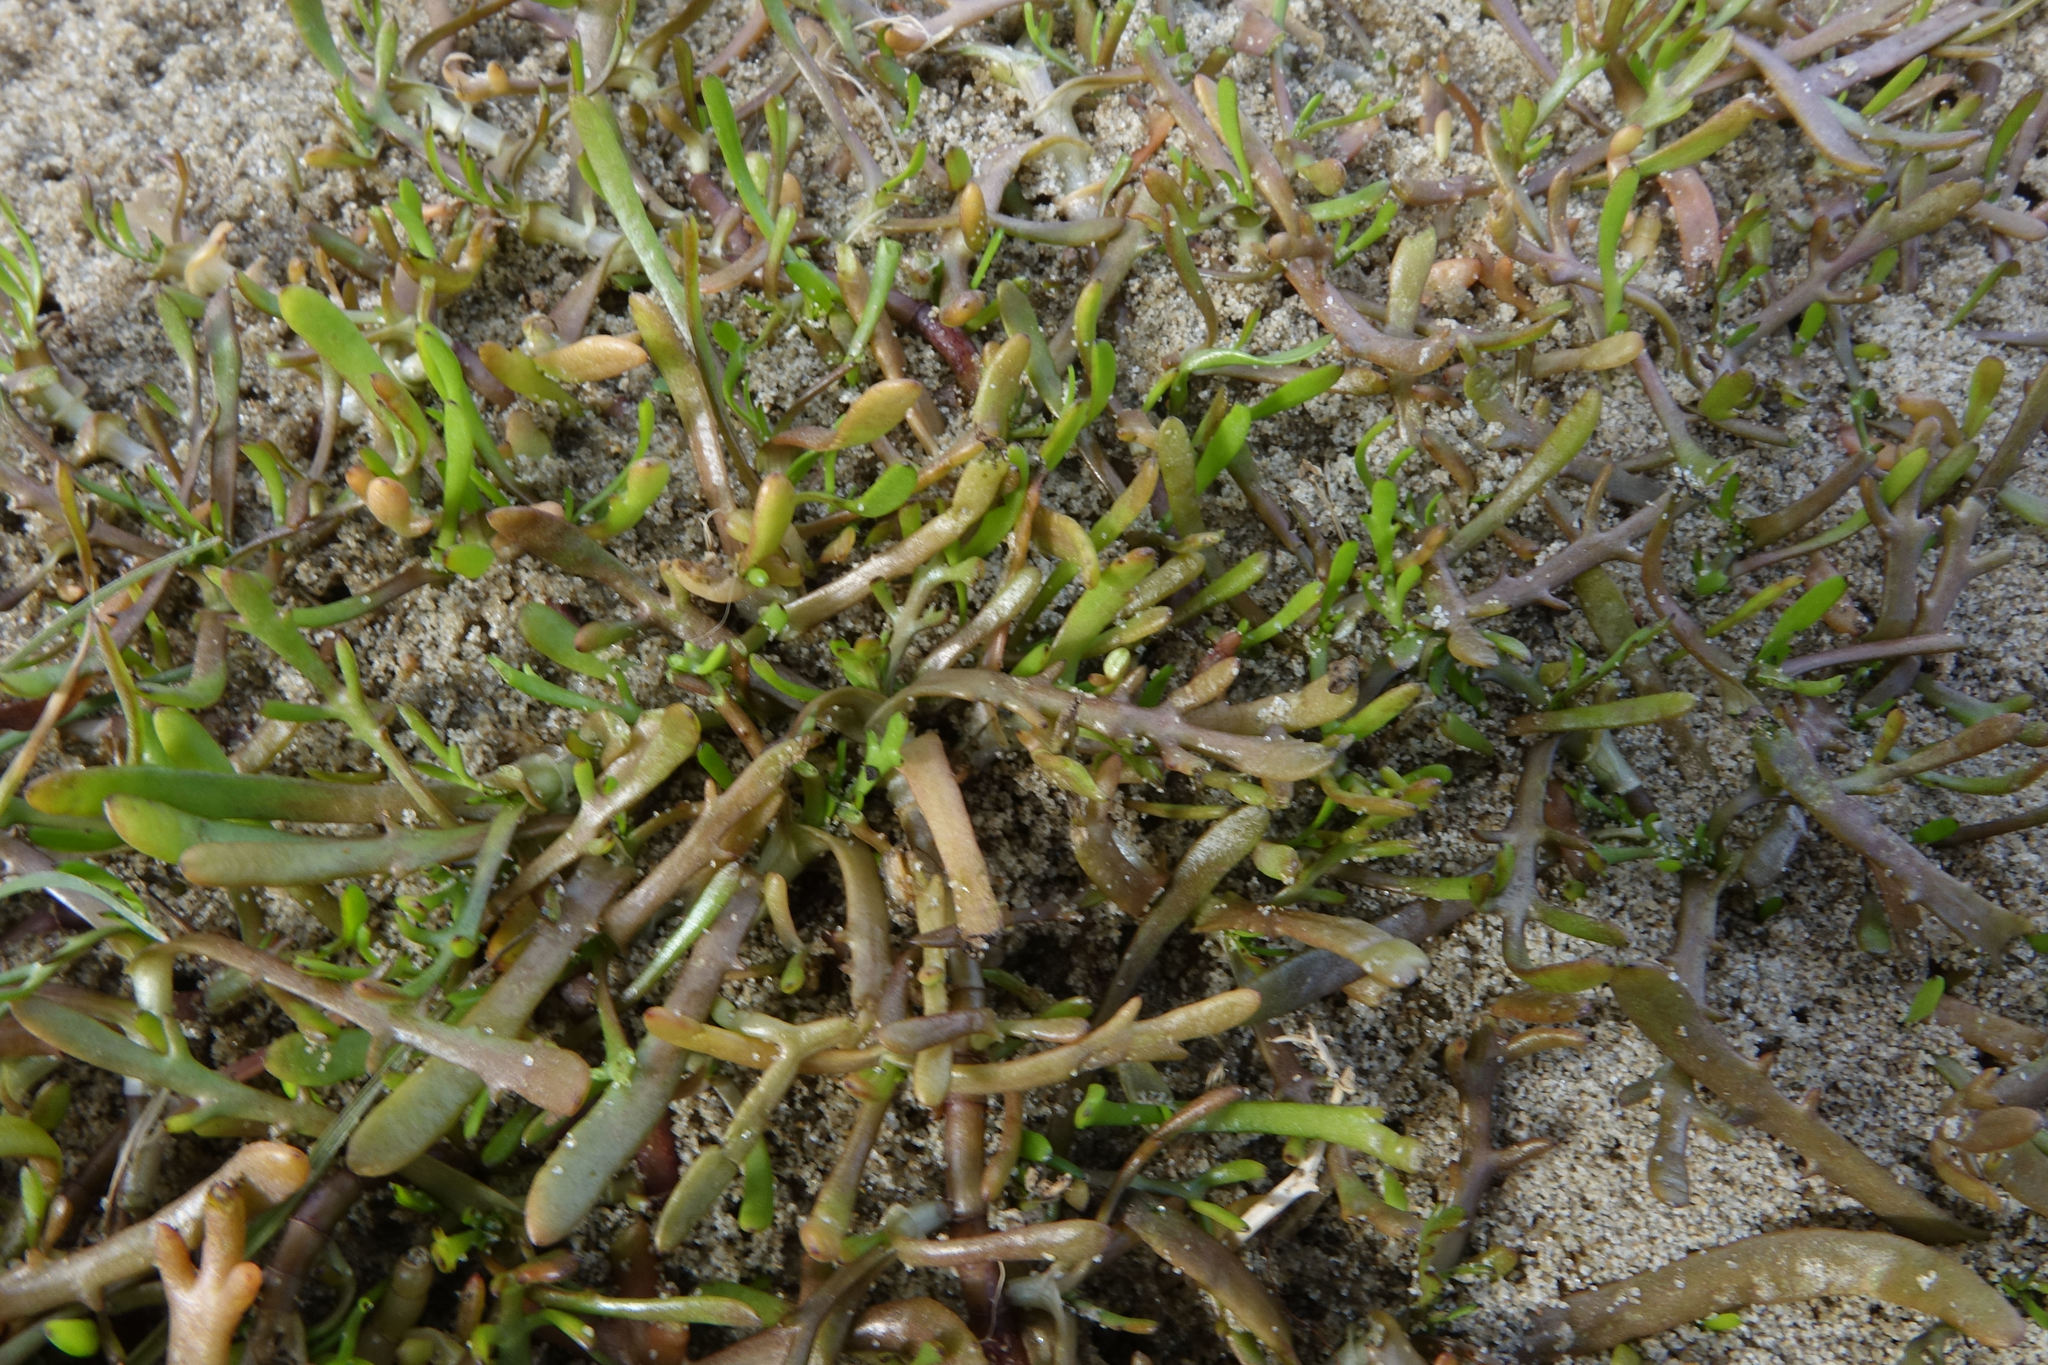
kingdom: Plantae
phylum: Tracheophyta
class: Magnoliopsida
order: Asterales
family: Asteraceae
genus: Cotula
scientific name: Cotula coronopifolia
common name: Buttonweed
